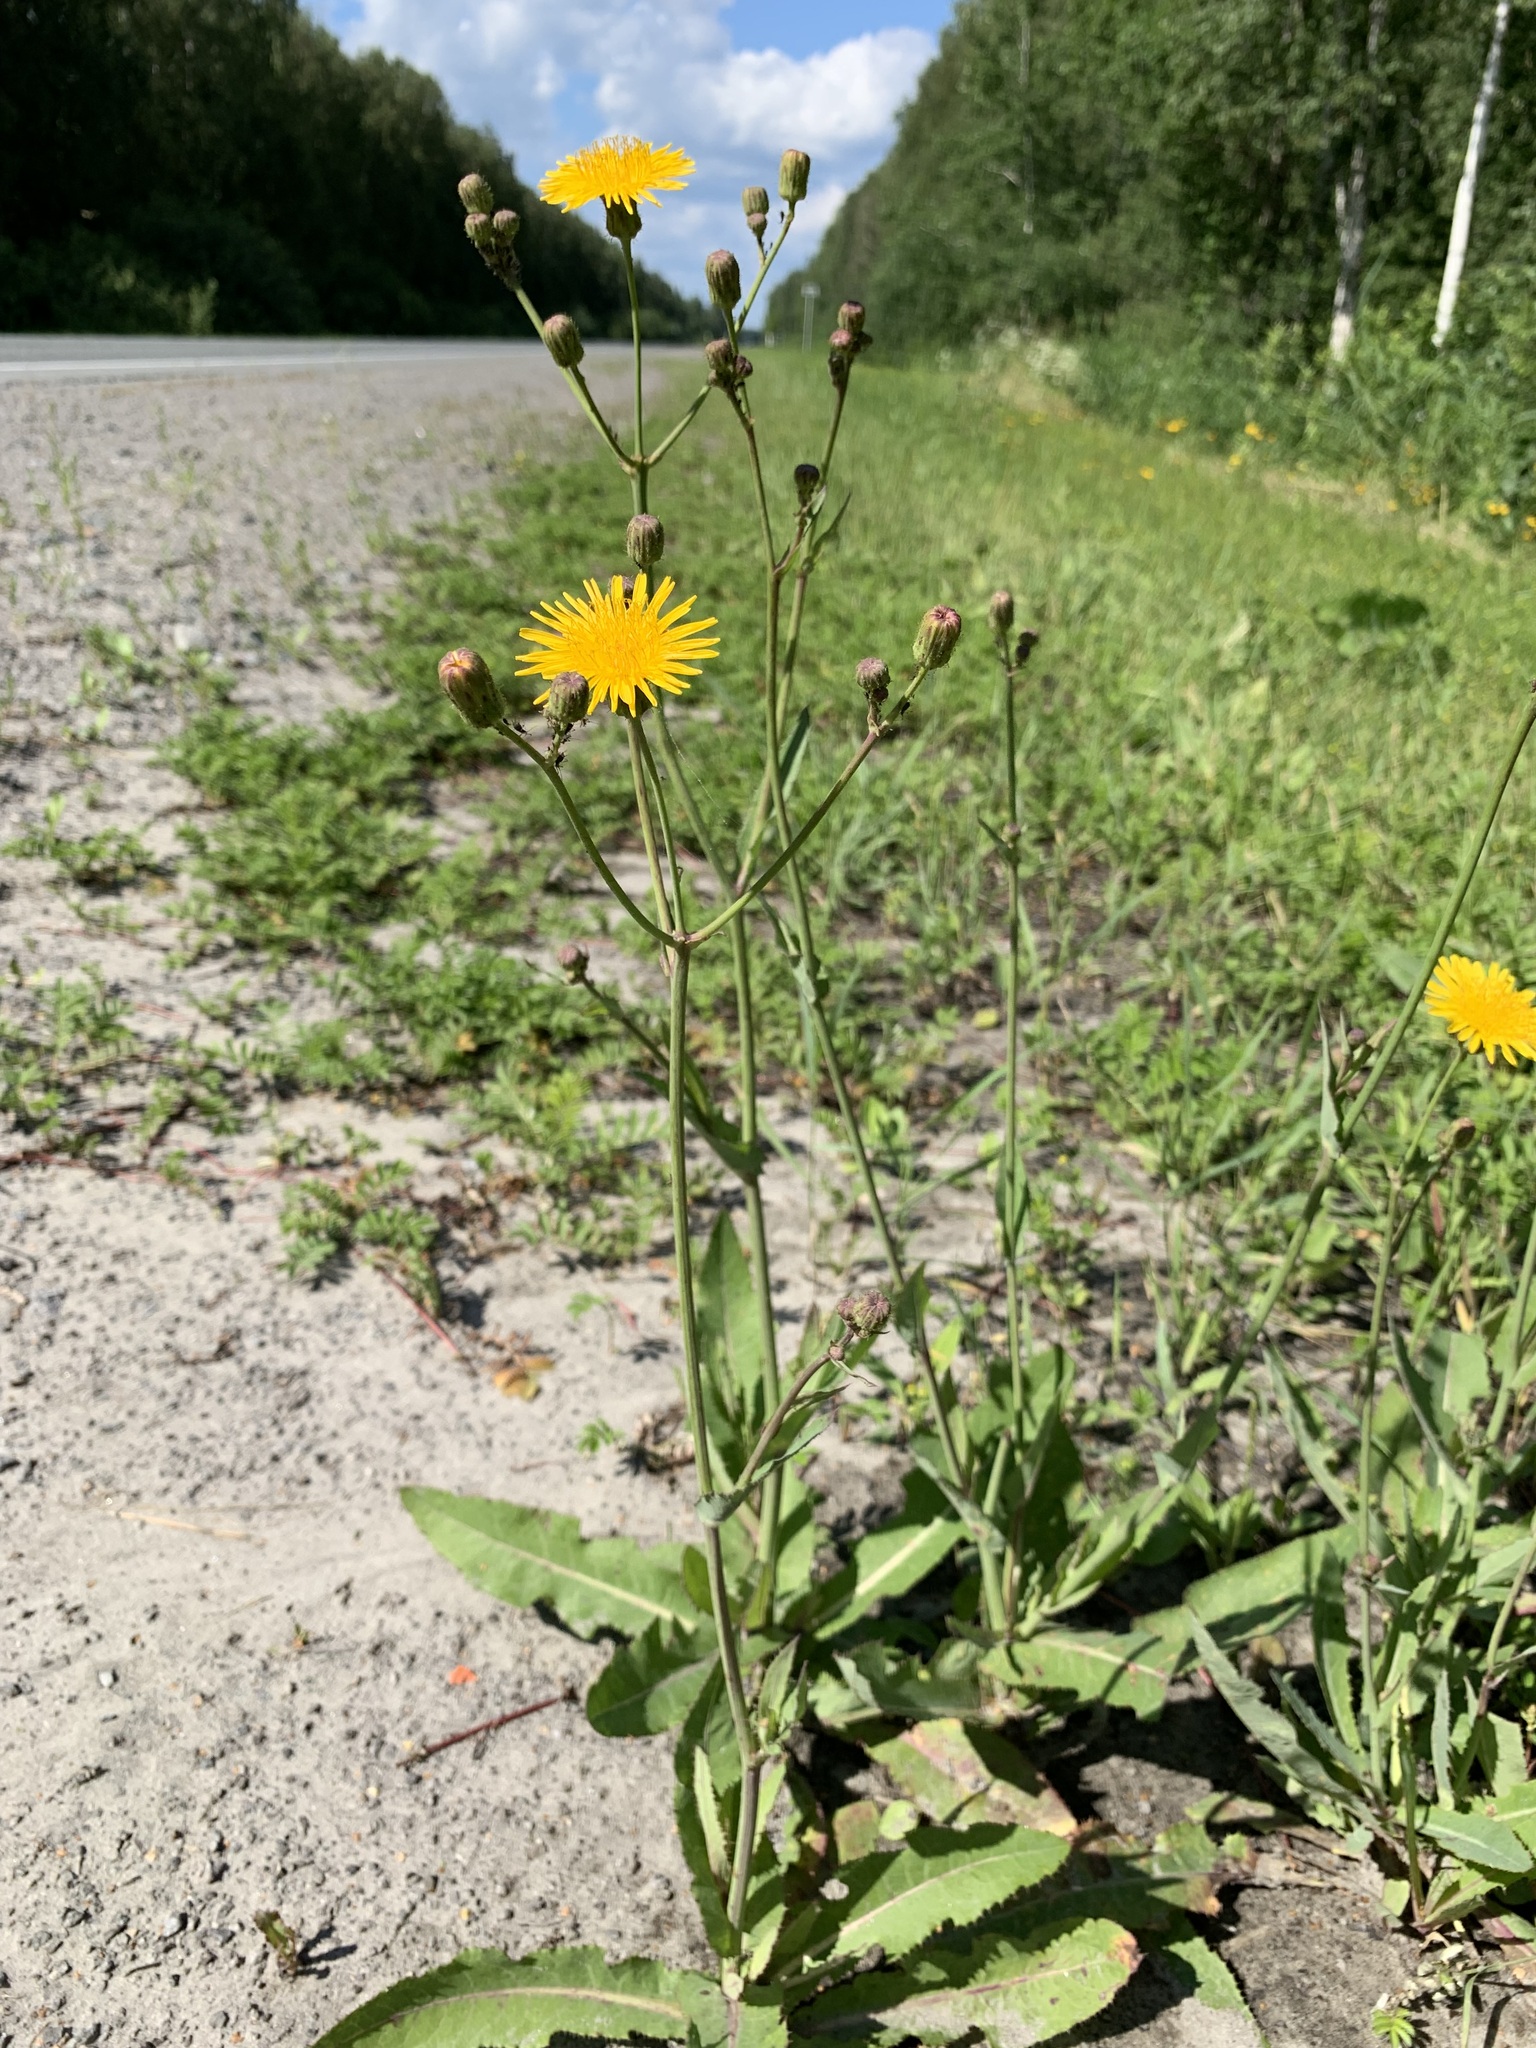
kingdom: Plantae
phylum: Tracheophyta
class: Magnoliopsida
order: Asterales
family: Asteraceae
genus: Sonchus
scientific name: Sonchus arvensis
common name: Perennial sow-thistle
